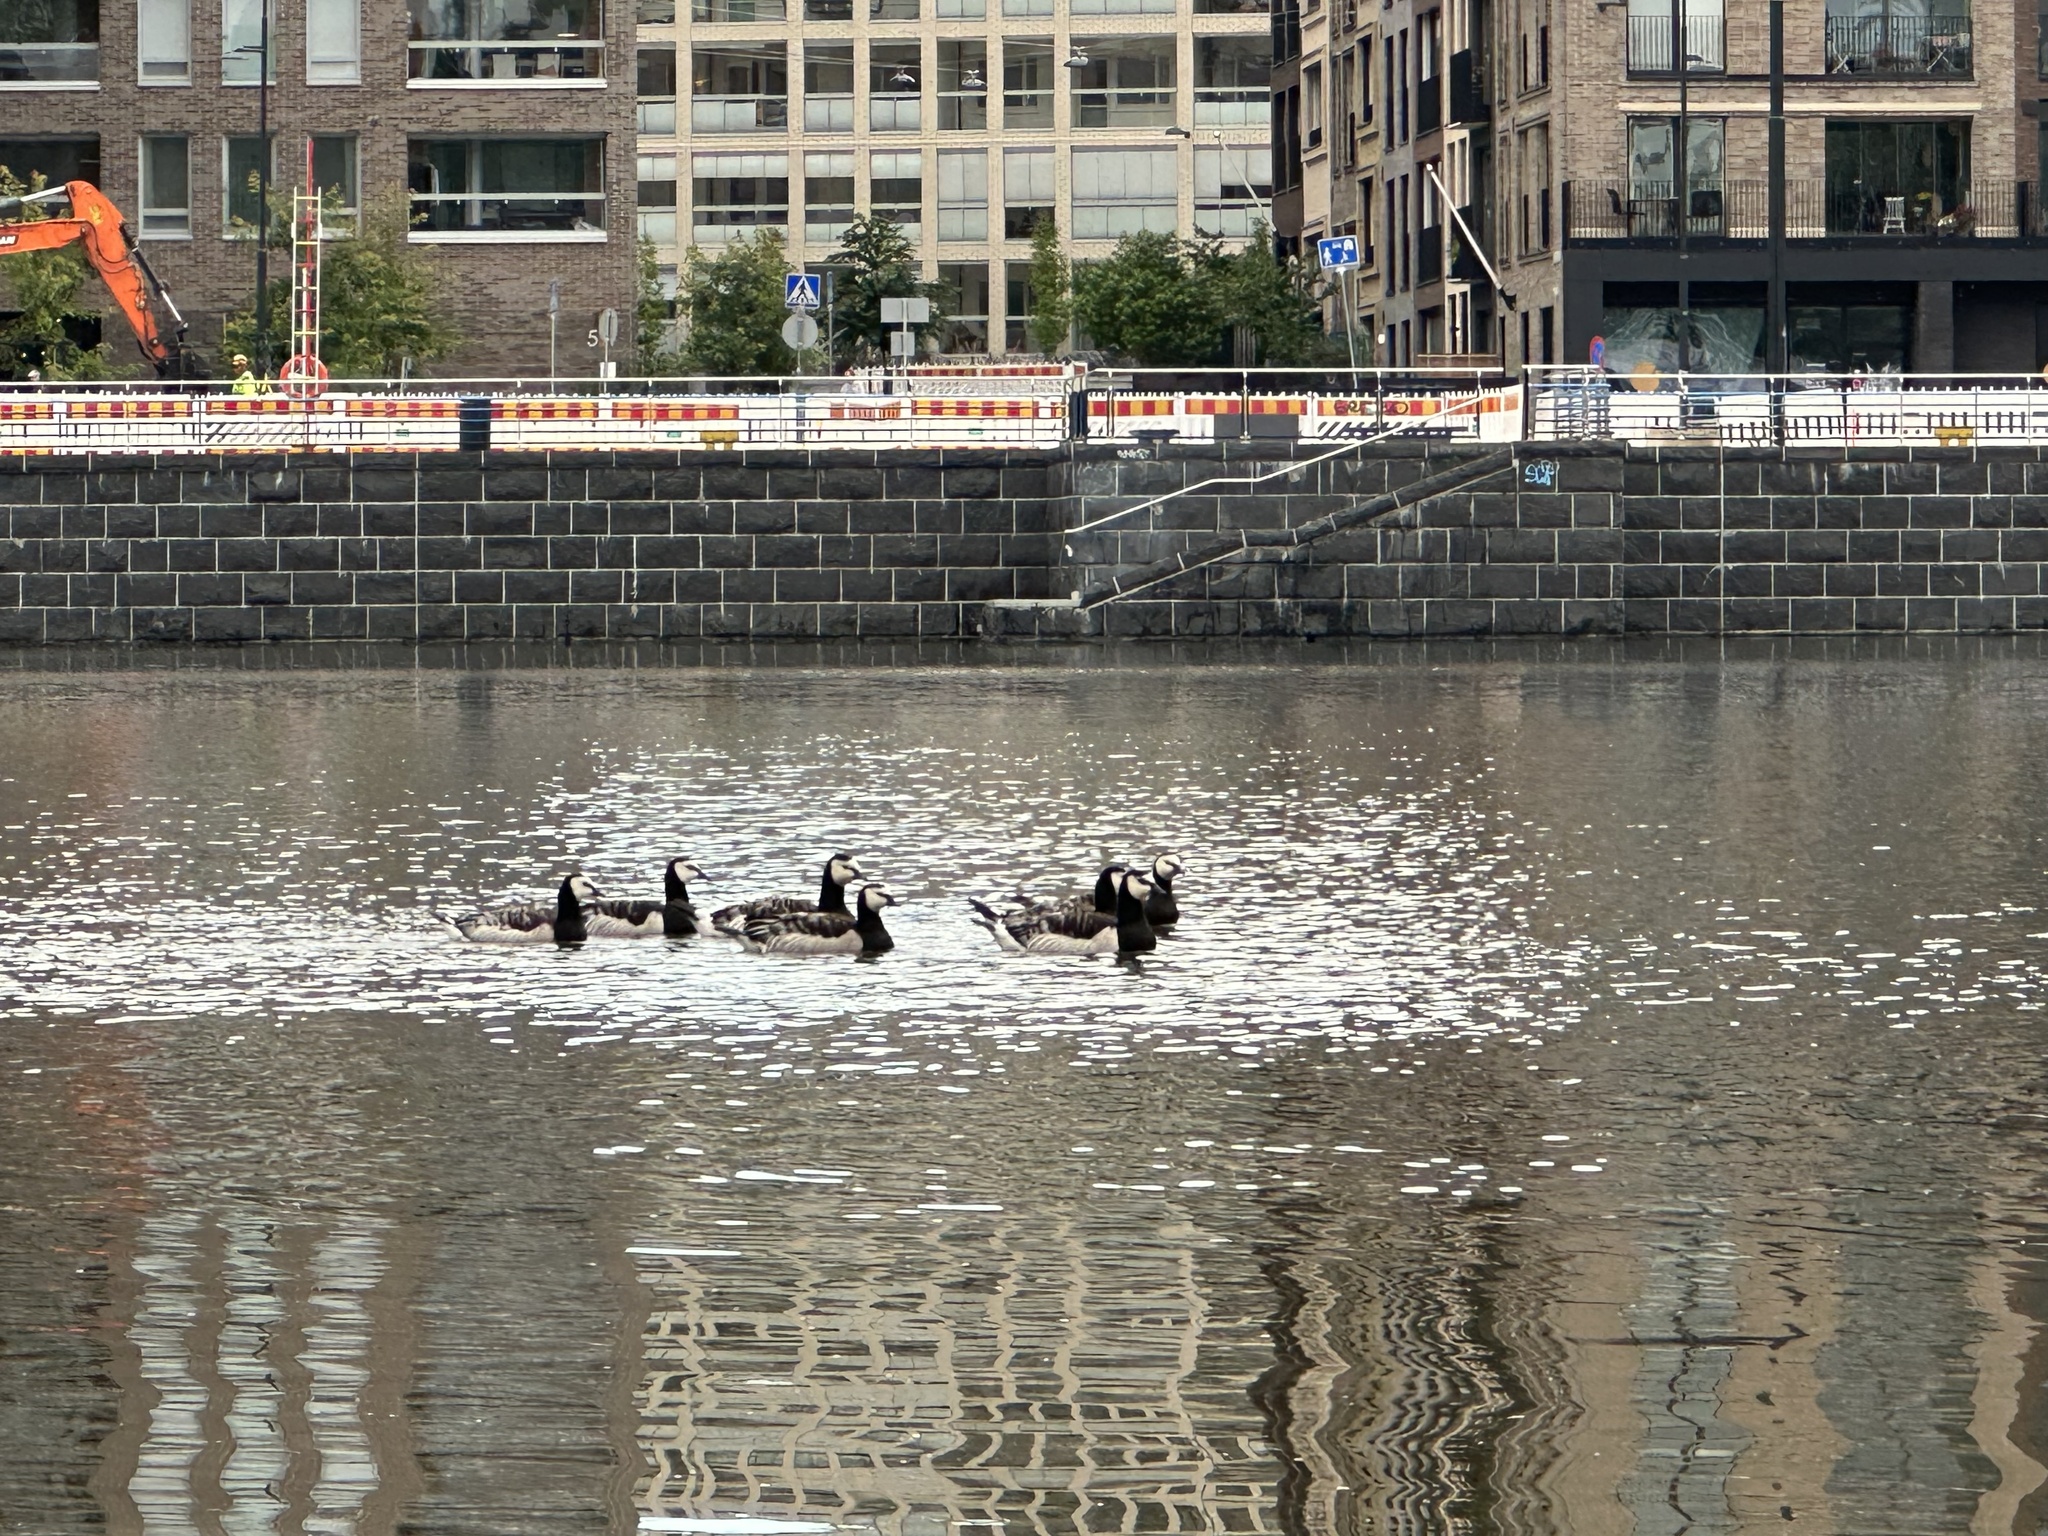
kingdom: Animalia
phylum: Chordata
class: Aves
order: Anseriformes
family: Anatidae
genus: Branta
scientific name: Branta leucopsis
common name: Barnacle goose
